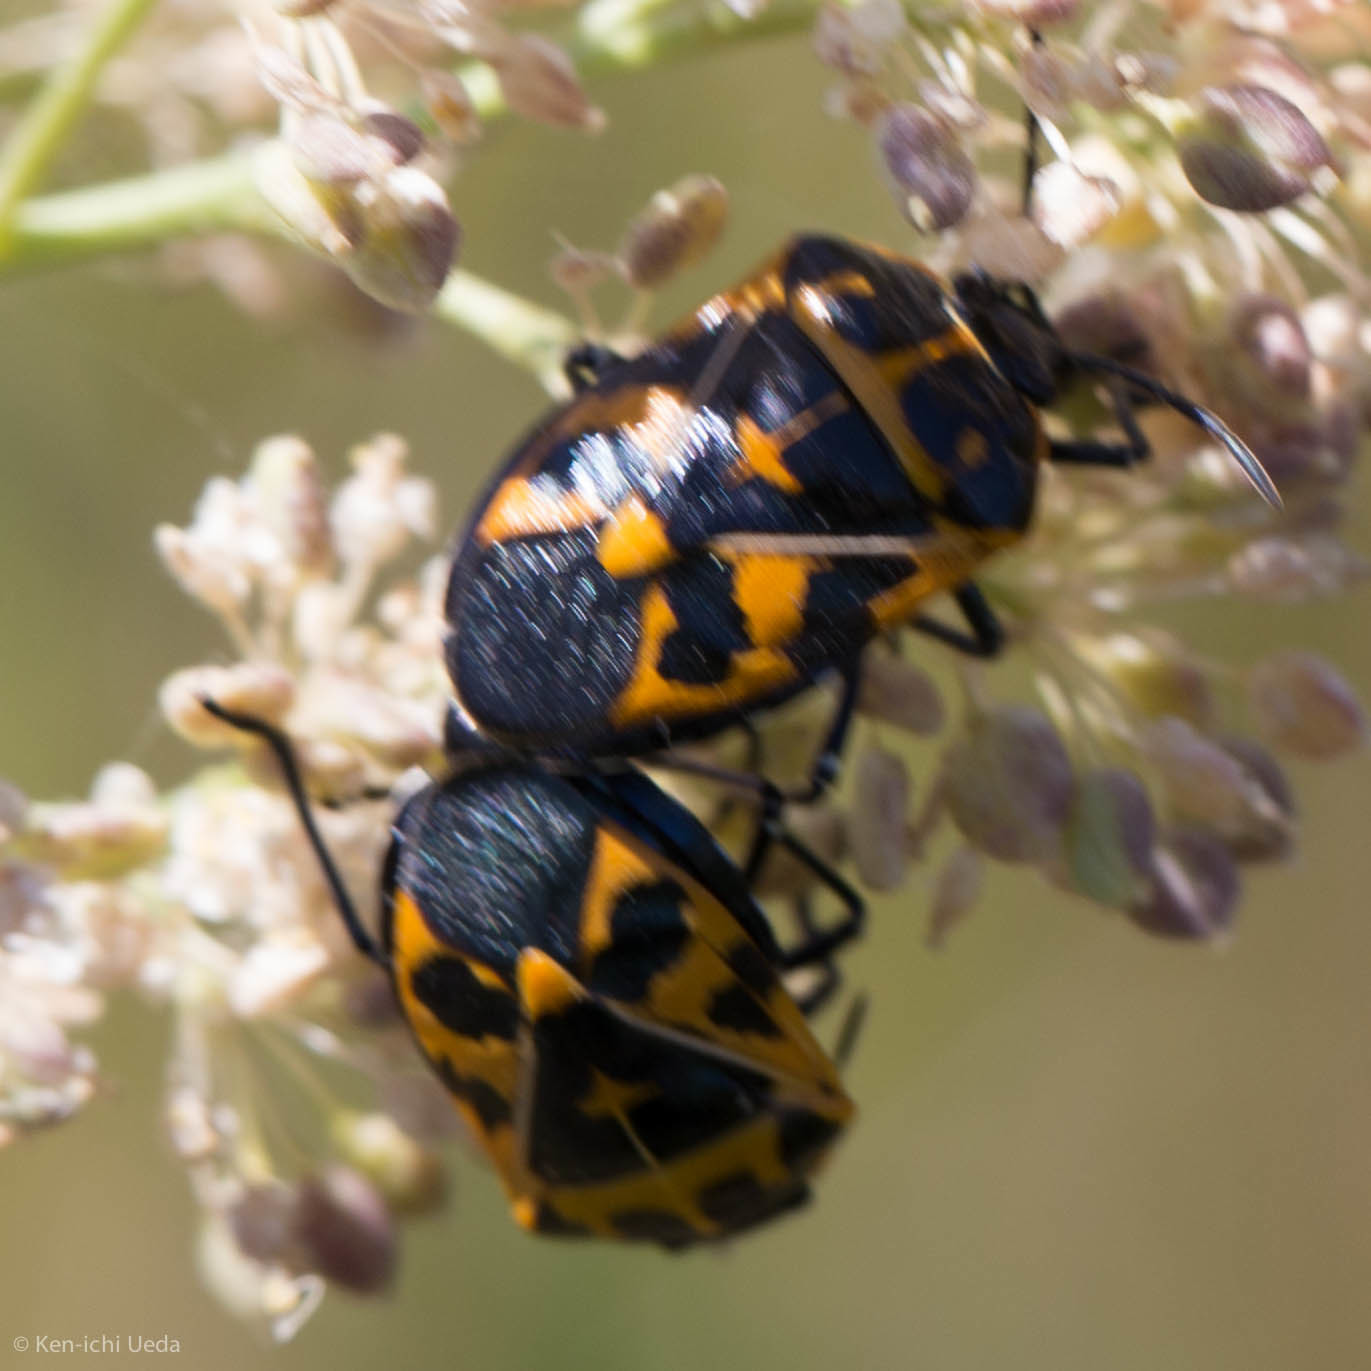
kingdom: Animalia
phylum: Arthropoda
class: Insecta
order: Hemiptera
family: Pentatomidae
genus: Murgantia
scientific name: Murgantia histrionica
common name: Harlequin bug
